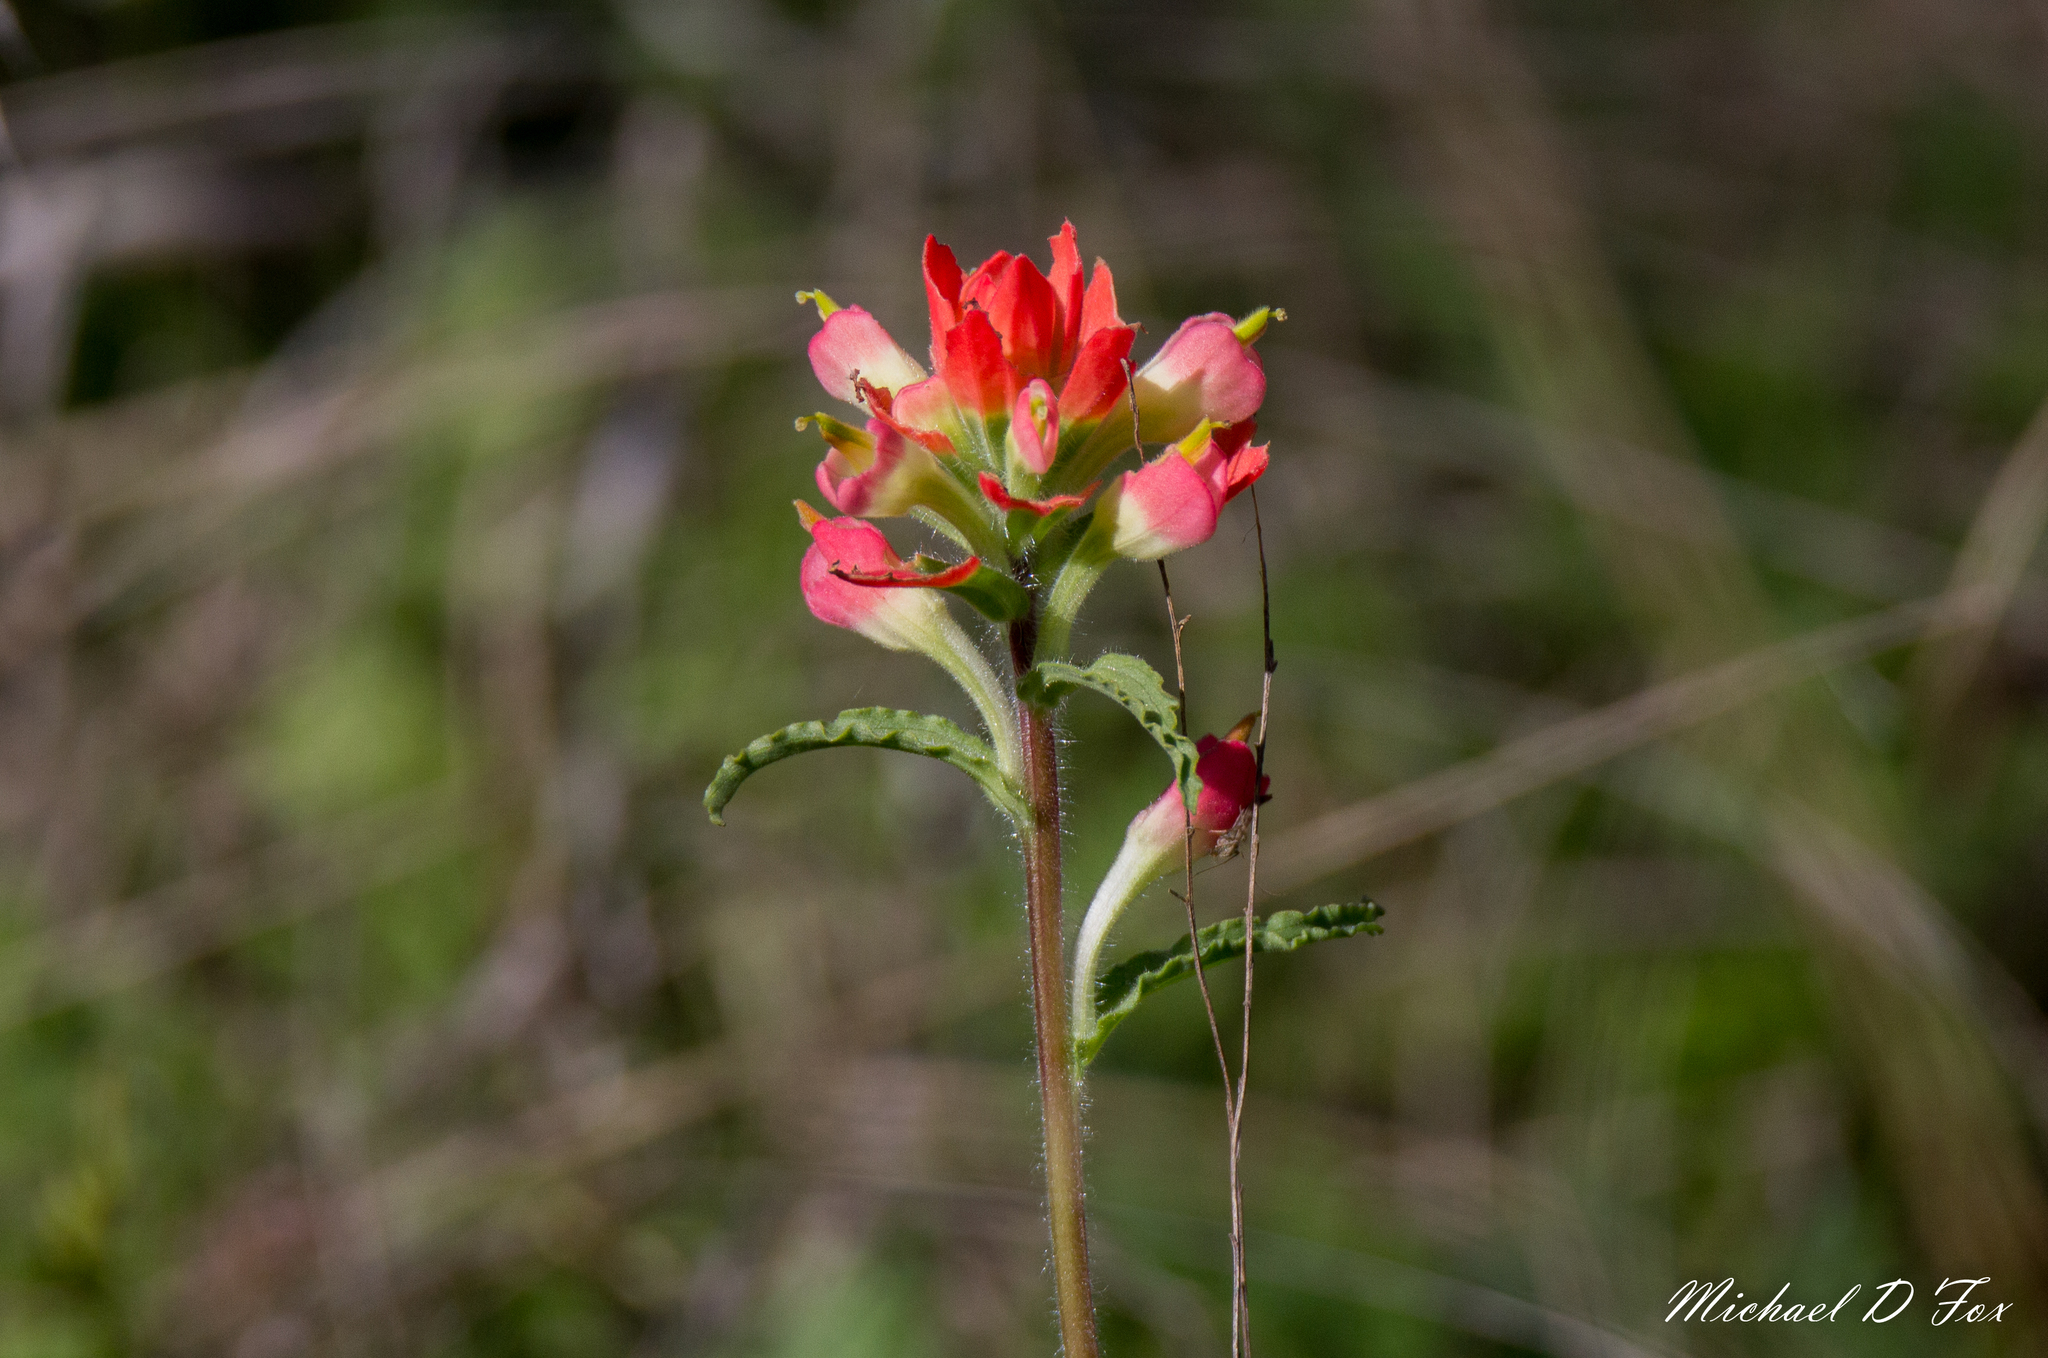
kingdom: Plantae
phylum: Tracheophyta
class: Magnoliopsida
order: Lamiales
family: Orobanchaceae
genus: Castilleja
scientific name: Castilleja indivisa
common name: Texas paintbrush
